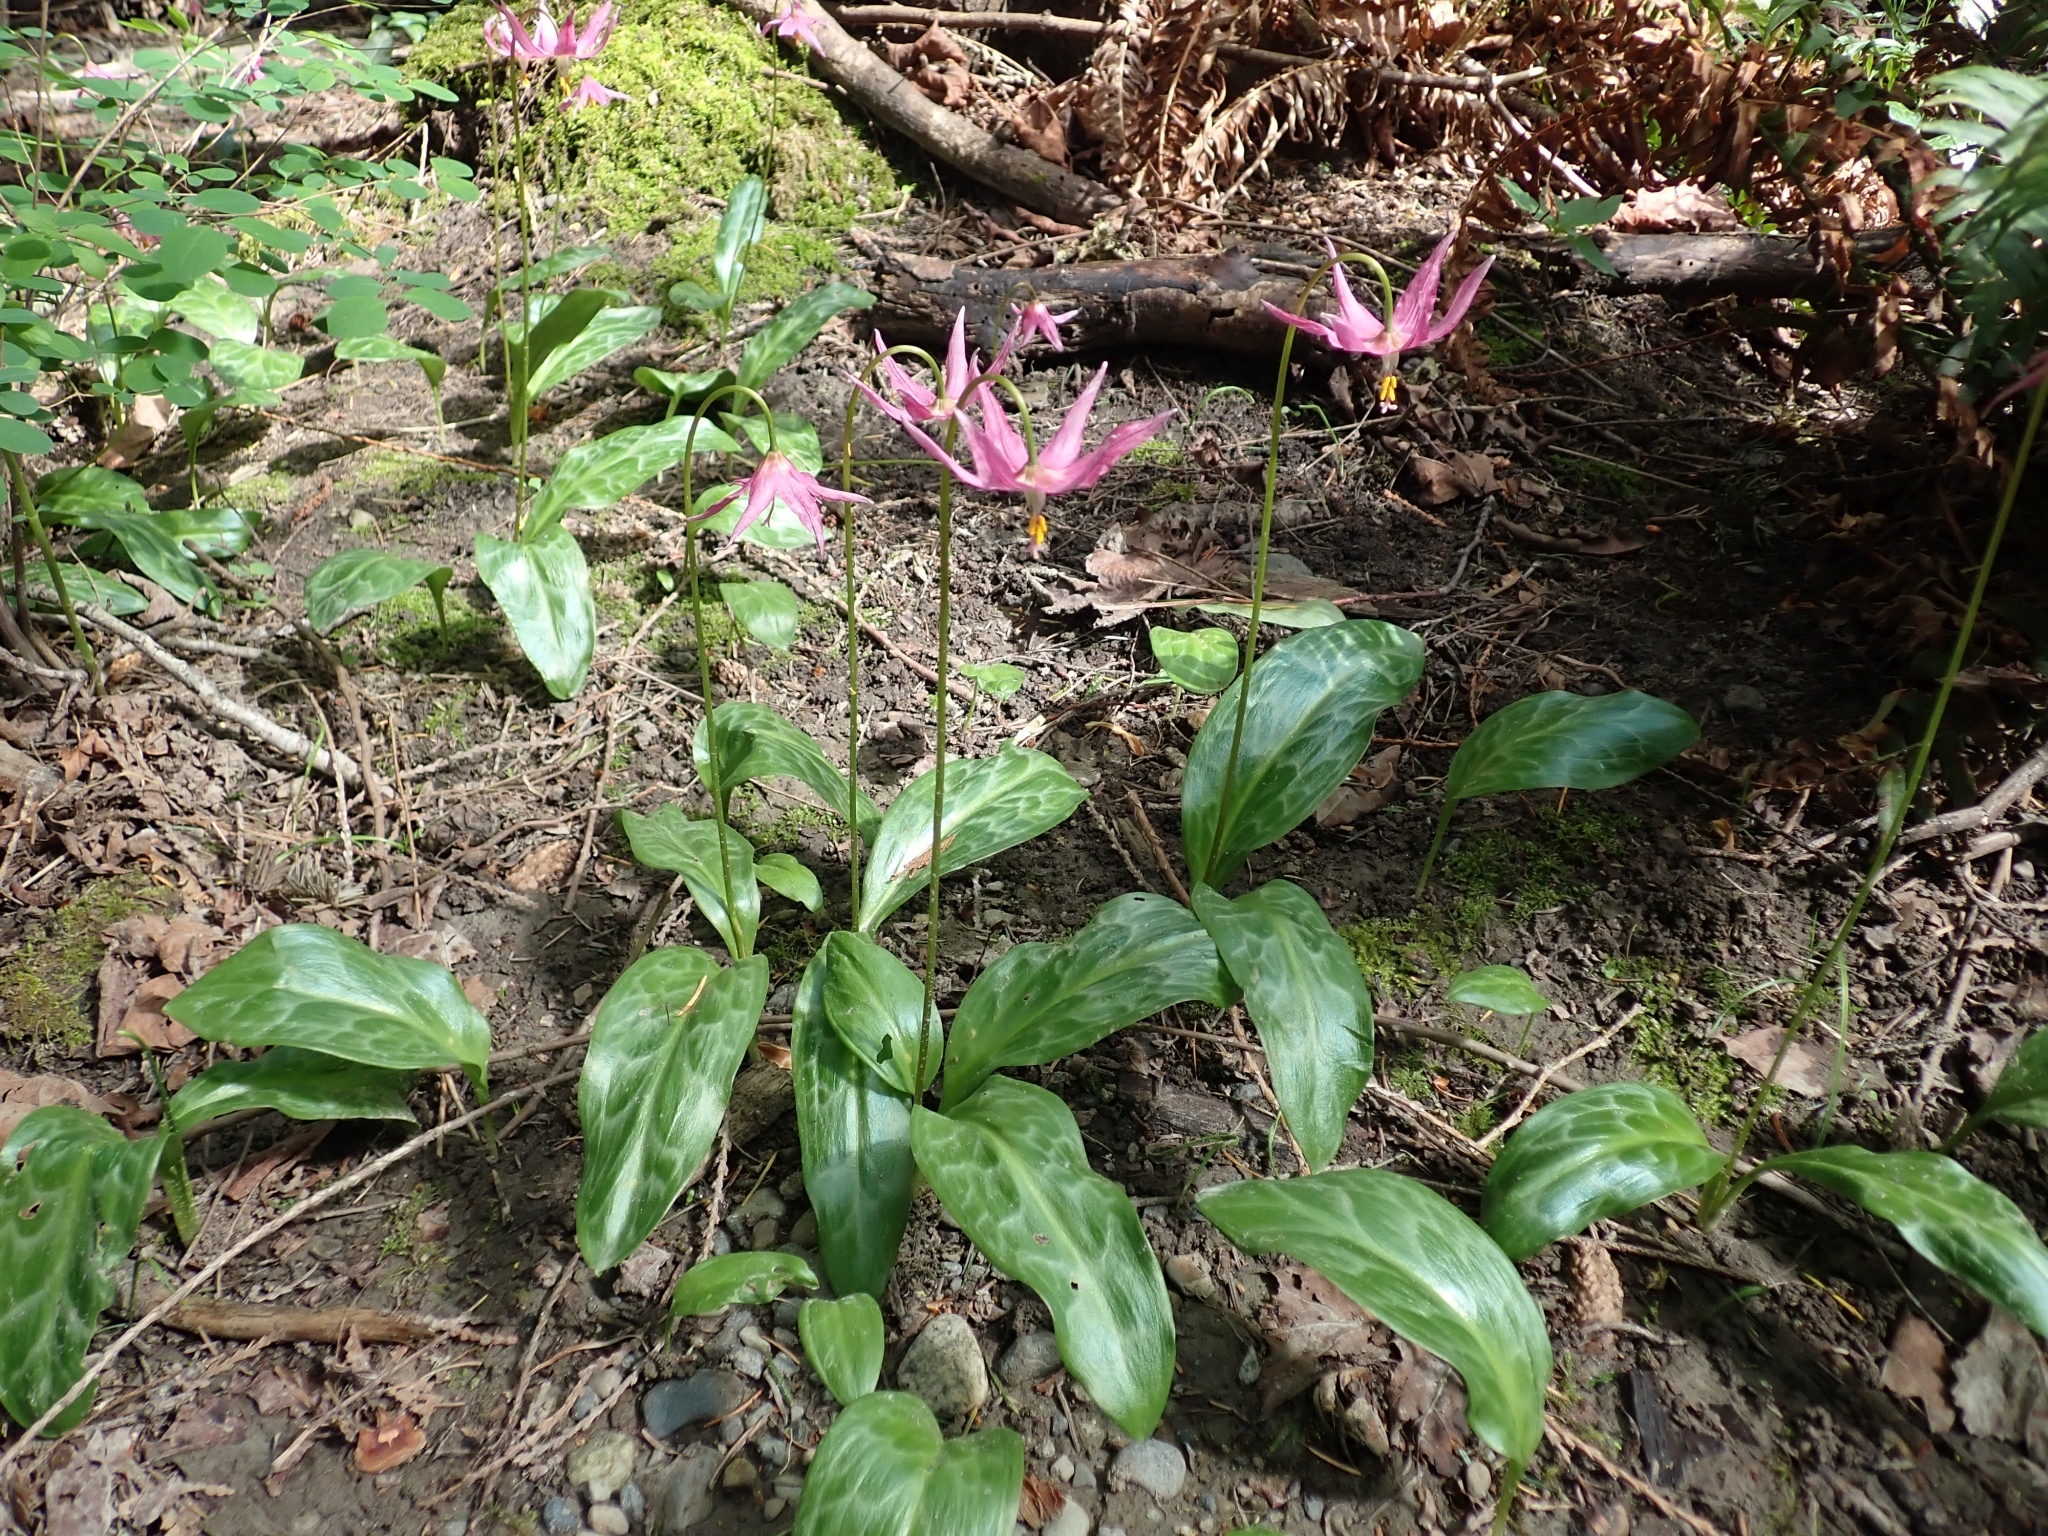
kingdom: Plantae
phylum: Tracheophyta
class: Liliopsida
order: Liliales
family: Liliaceae
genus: Erythronium
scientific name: Erythronium revolutum
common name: Pink fawn-lily
